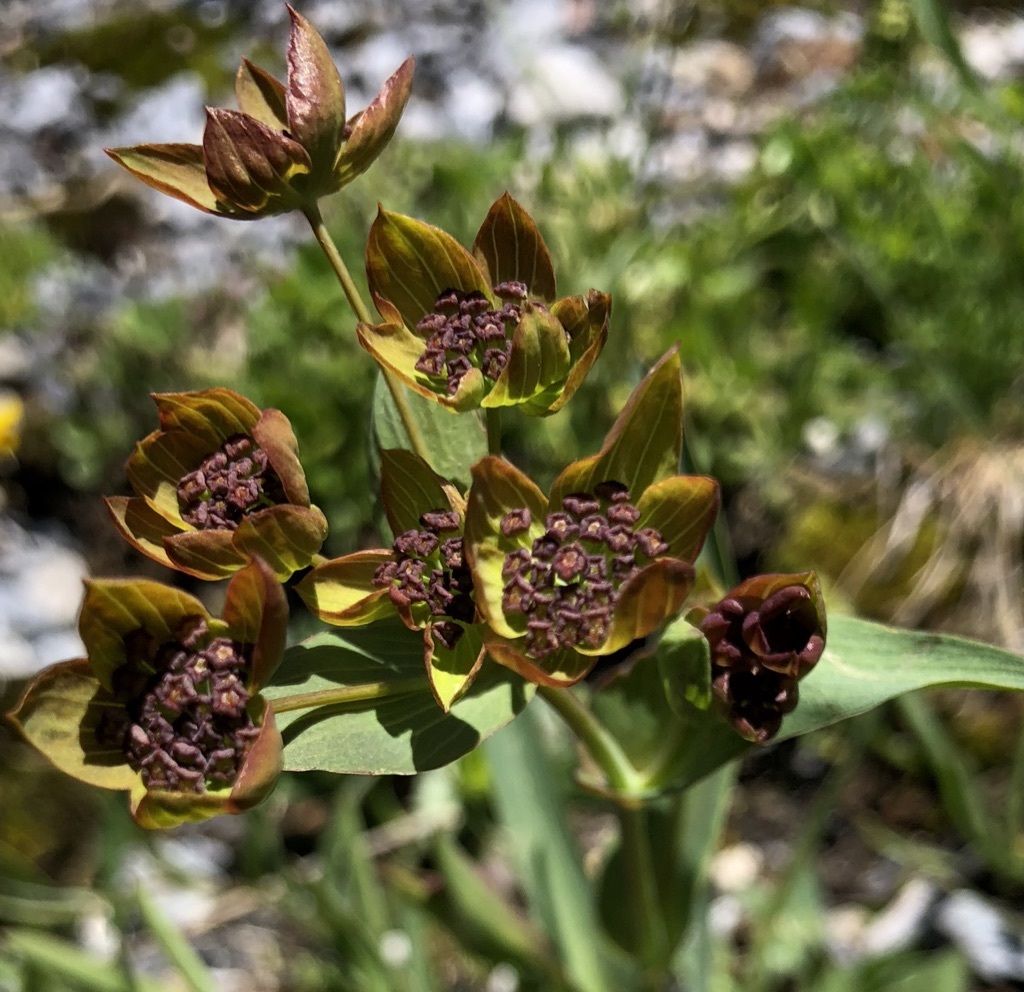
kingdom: Plantae
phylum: Tracheophyta
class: Magnoliopsida
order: Apiales
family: Apiaceae
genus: Bupleurum
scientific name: Bupleurum ranunculoides
